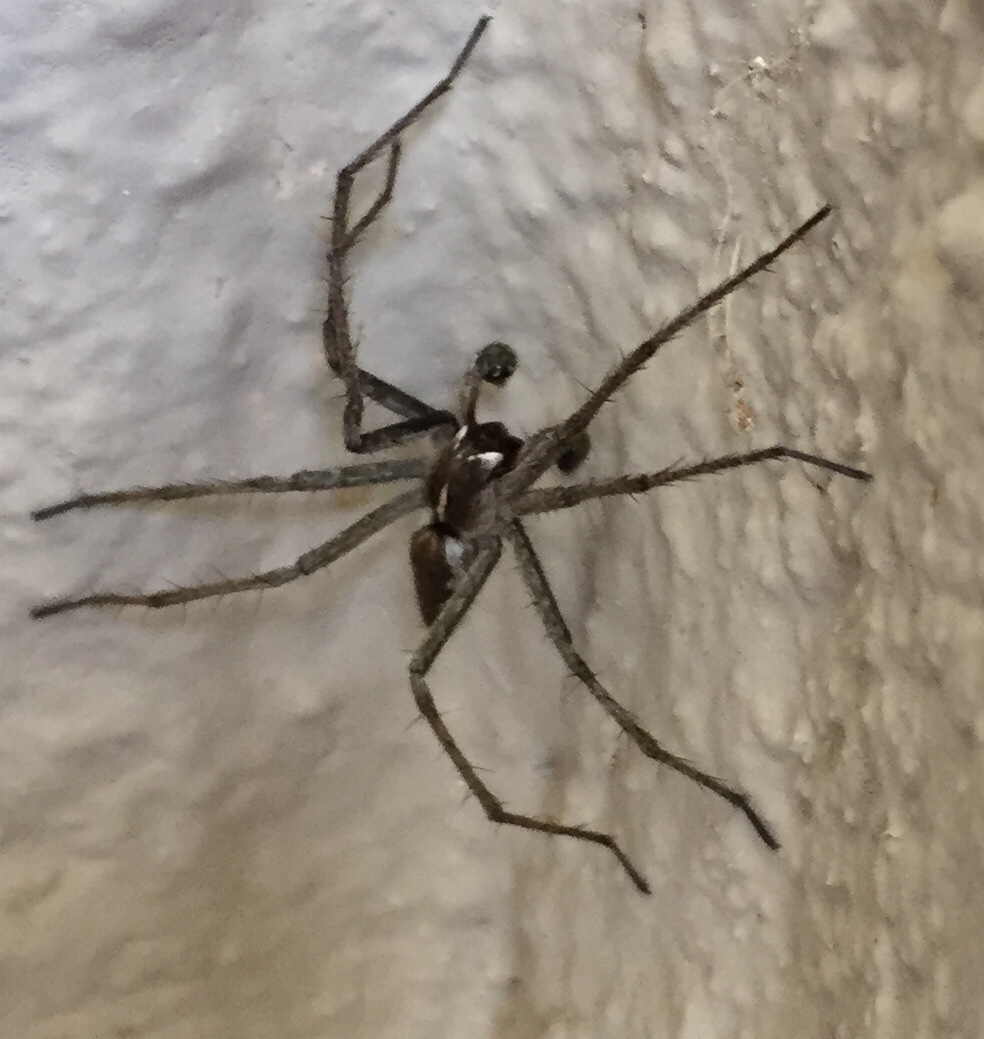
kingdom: Animalia
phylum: Arthropoda
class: Arachnida
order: Araneae
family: Pisauridae
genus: Pisaura
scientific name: Pisaura
